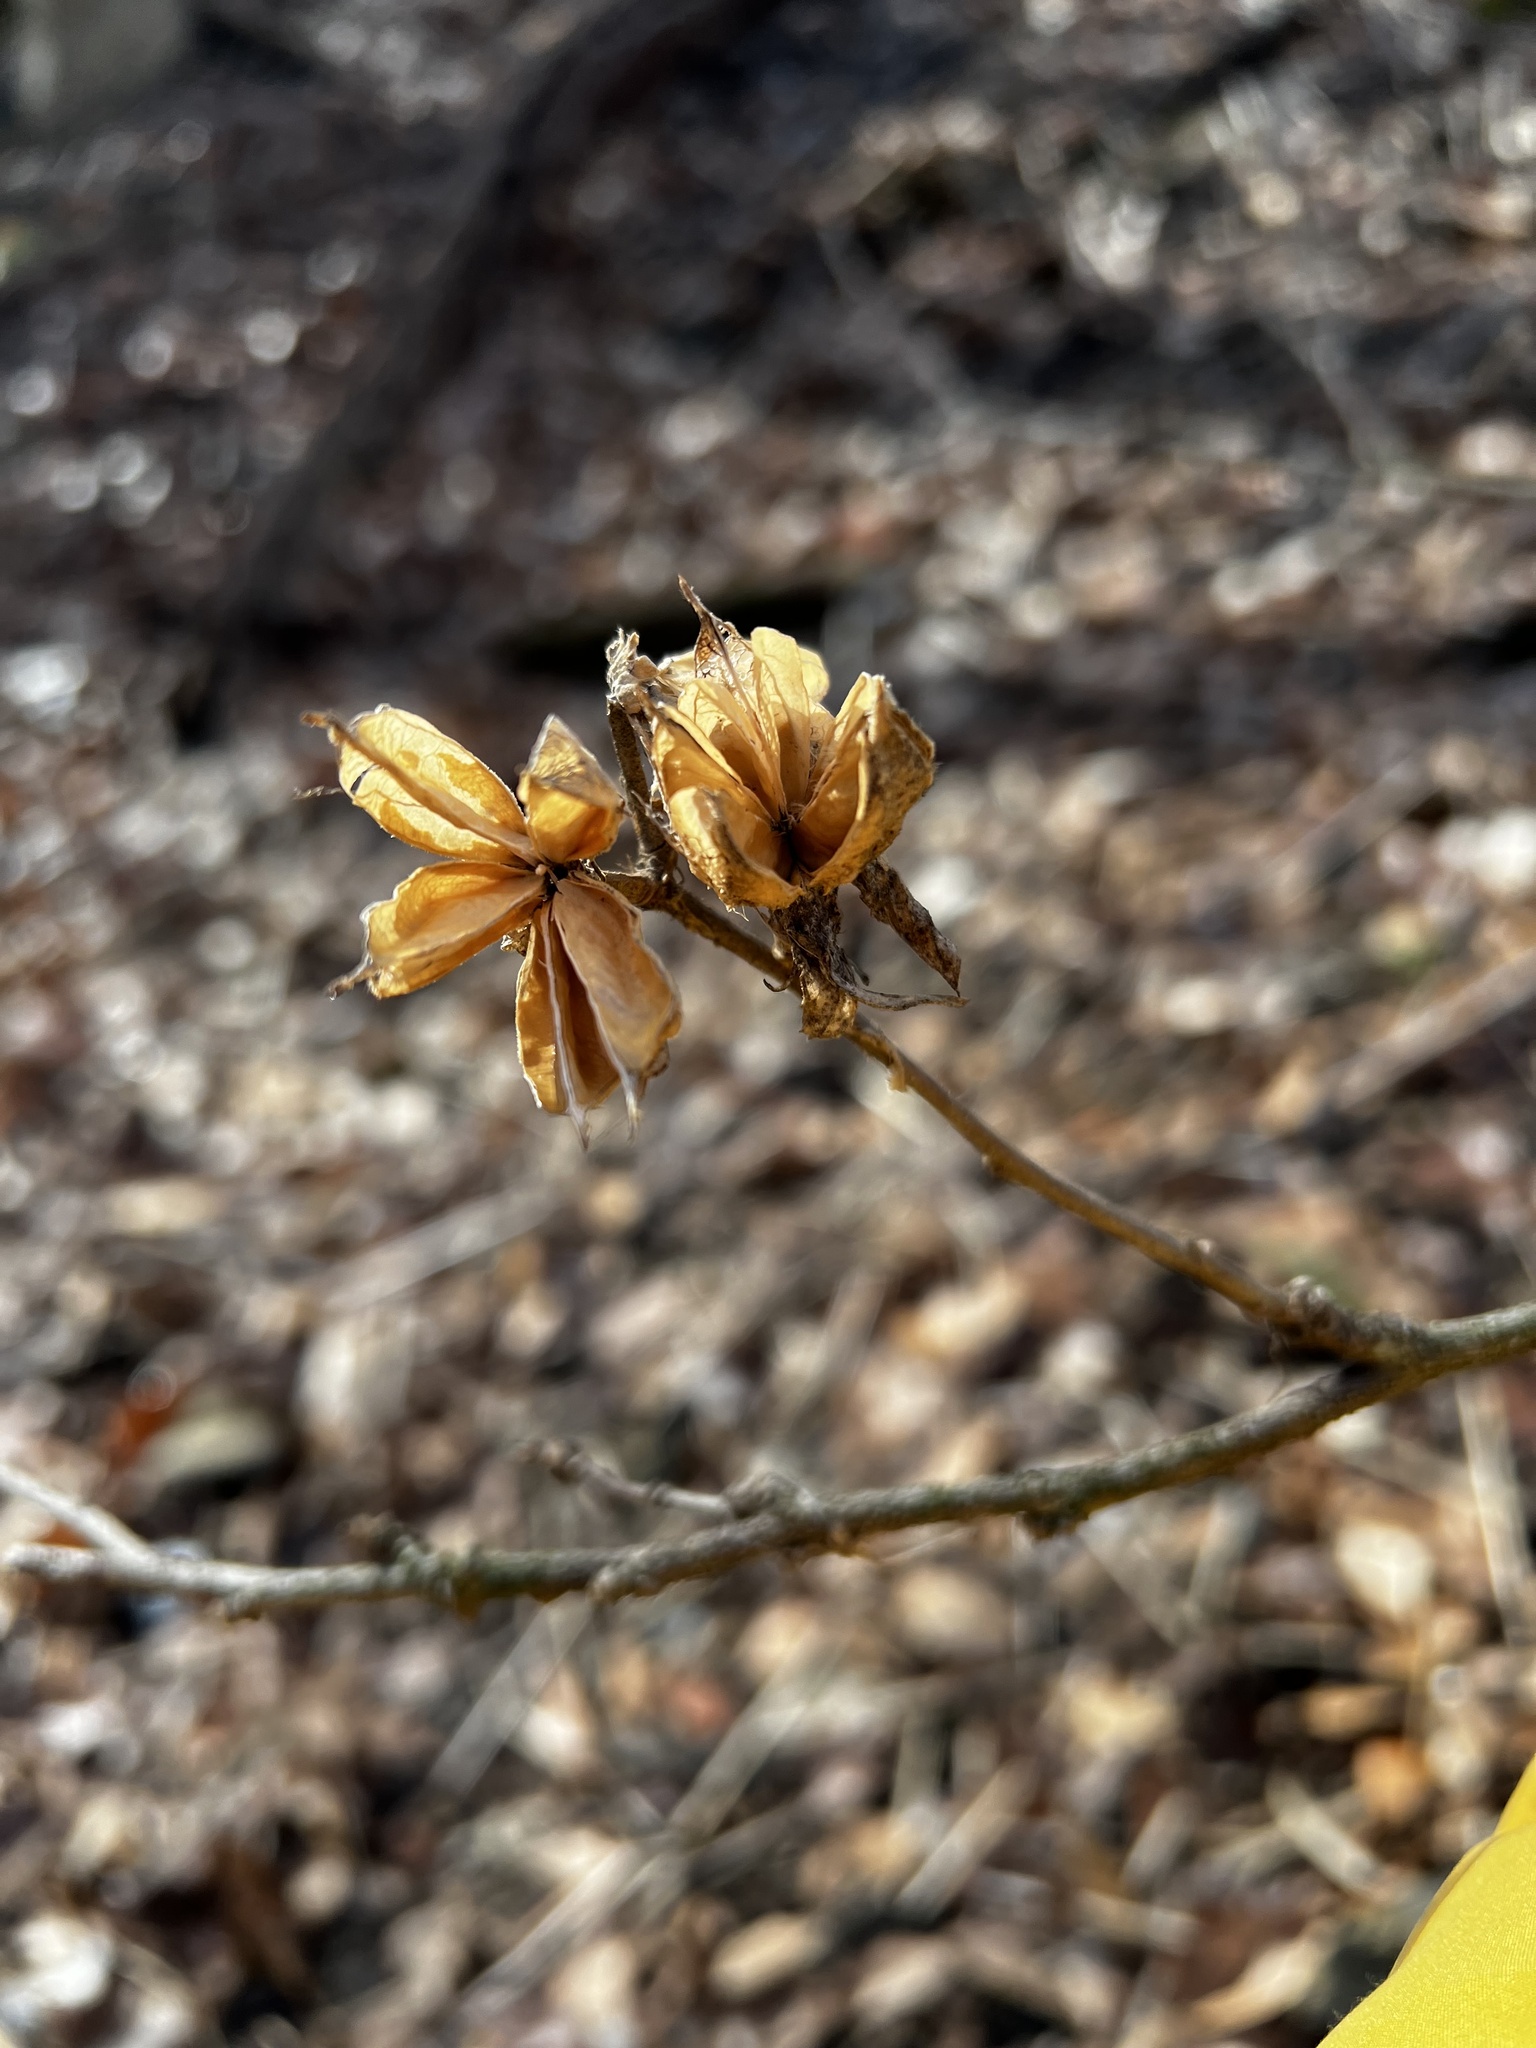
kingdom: Plantae
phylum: Tracheophyta
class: Magnoliopsida
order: Malvales
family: Malvaceae
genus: Hibiscus
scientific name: Hibiscus syriacus
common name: Syrian ketmia
